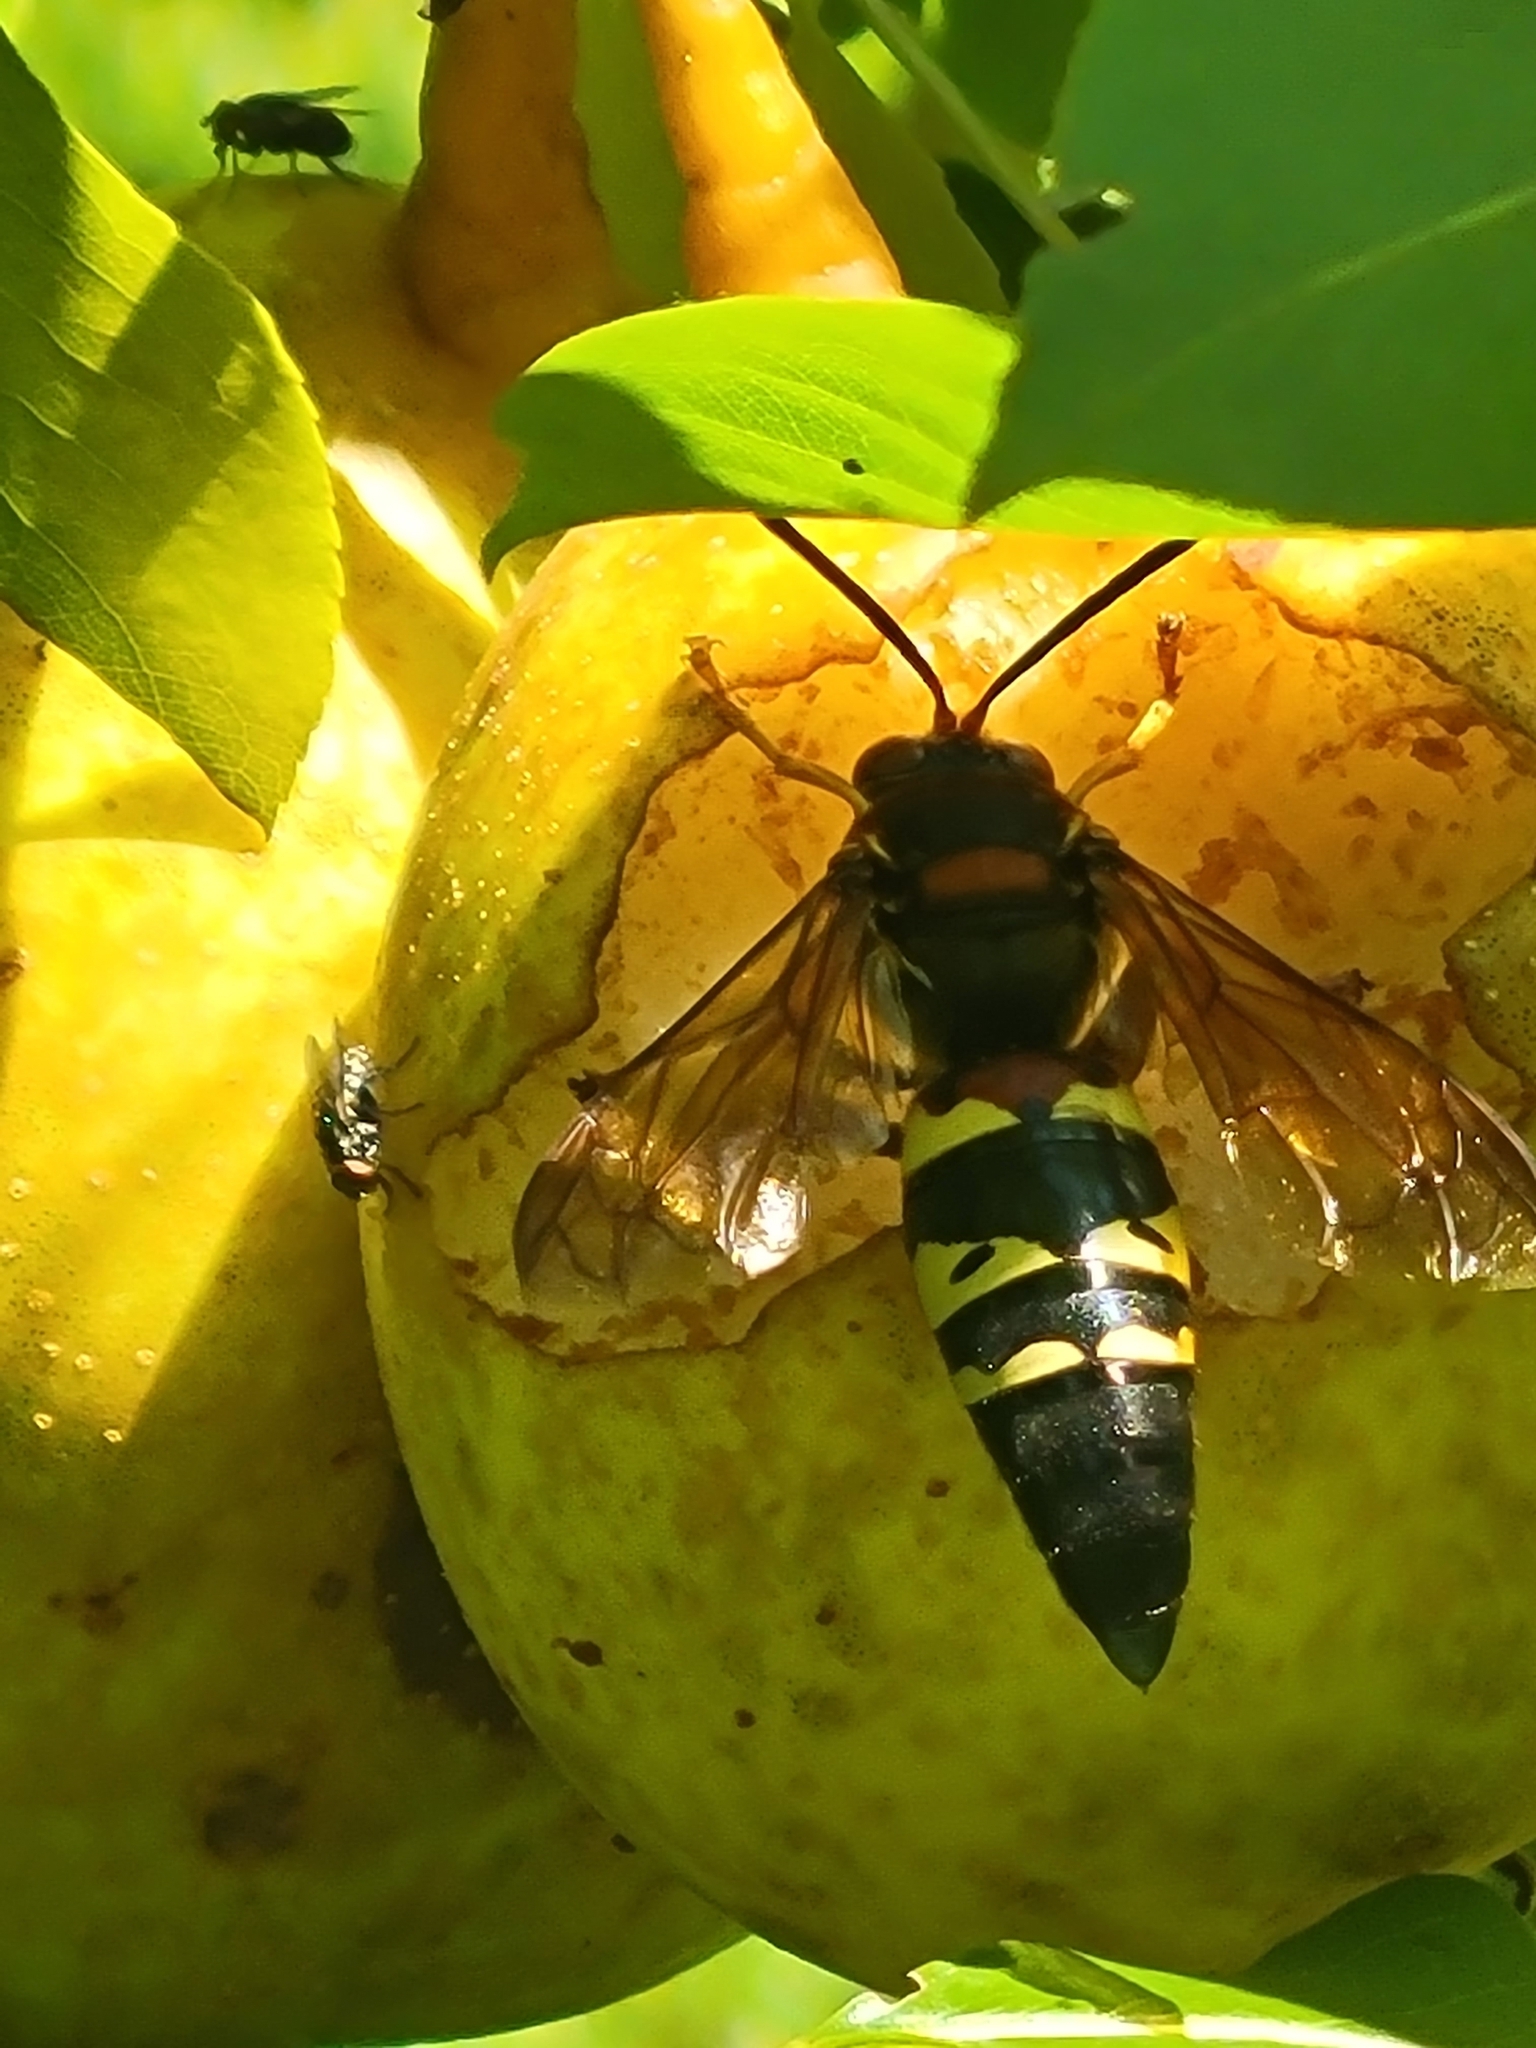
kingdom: Animalia
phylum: Arthropoda
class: Insecta
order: Hymenoptera
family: Crabronidae
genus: Sphecius
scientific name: Sphecius speciosus
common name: Cicada killer
